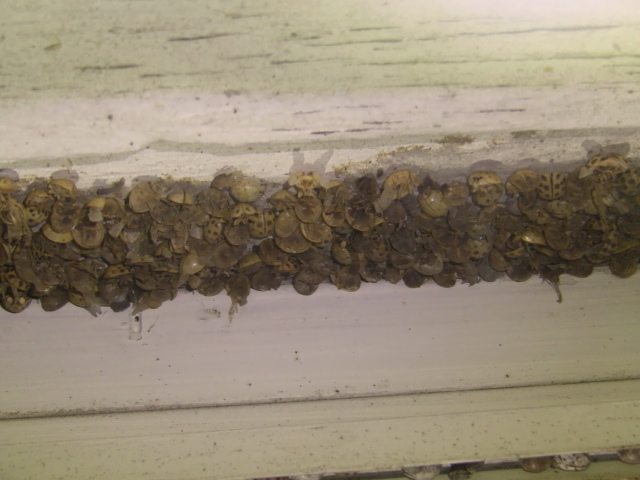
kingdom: Animalia
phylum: Arthropoda
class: Insecta
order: Coleoptera
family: Coccinellidae
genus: Harmonia
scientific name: Harmonia axyridis
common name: Harlequin ladybird
